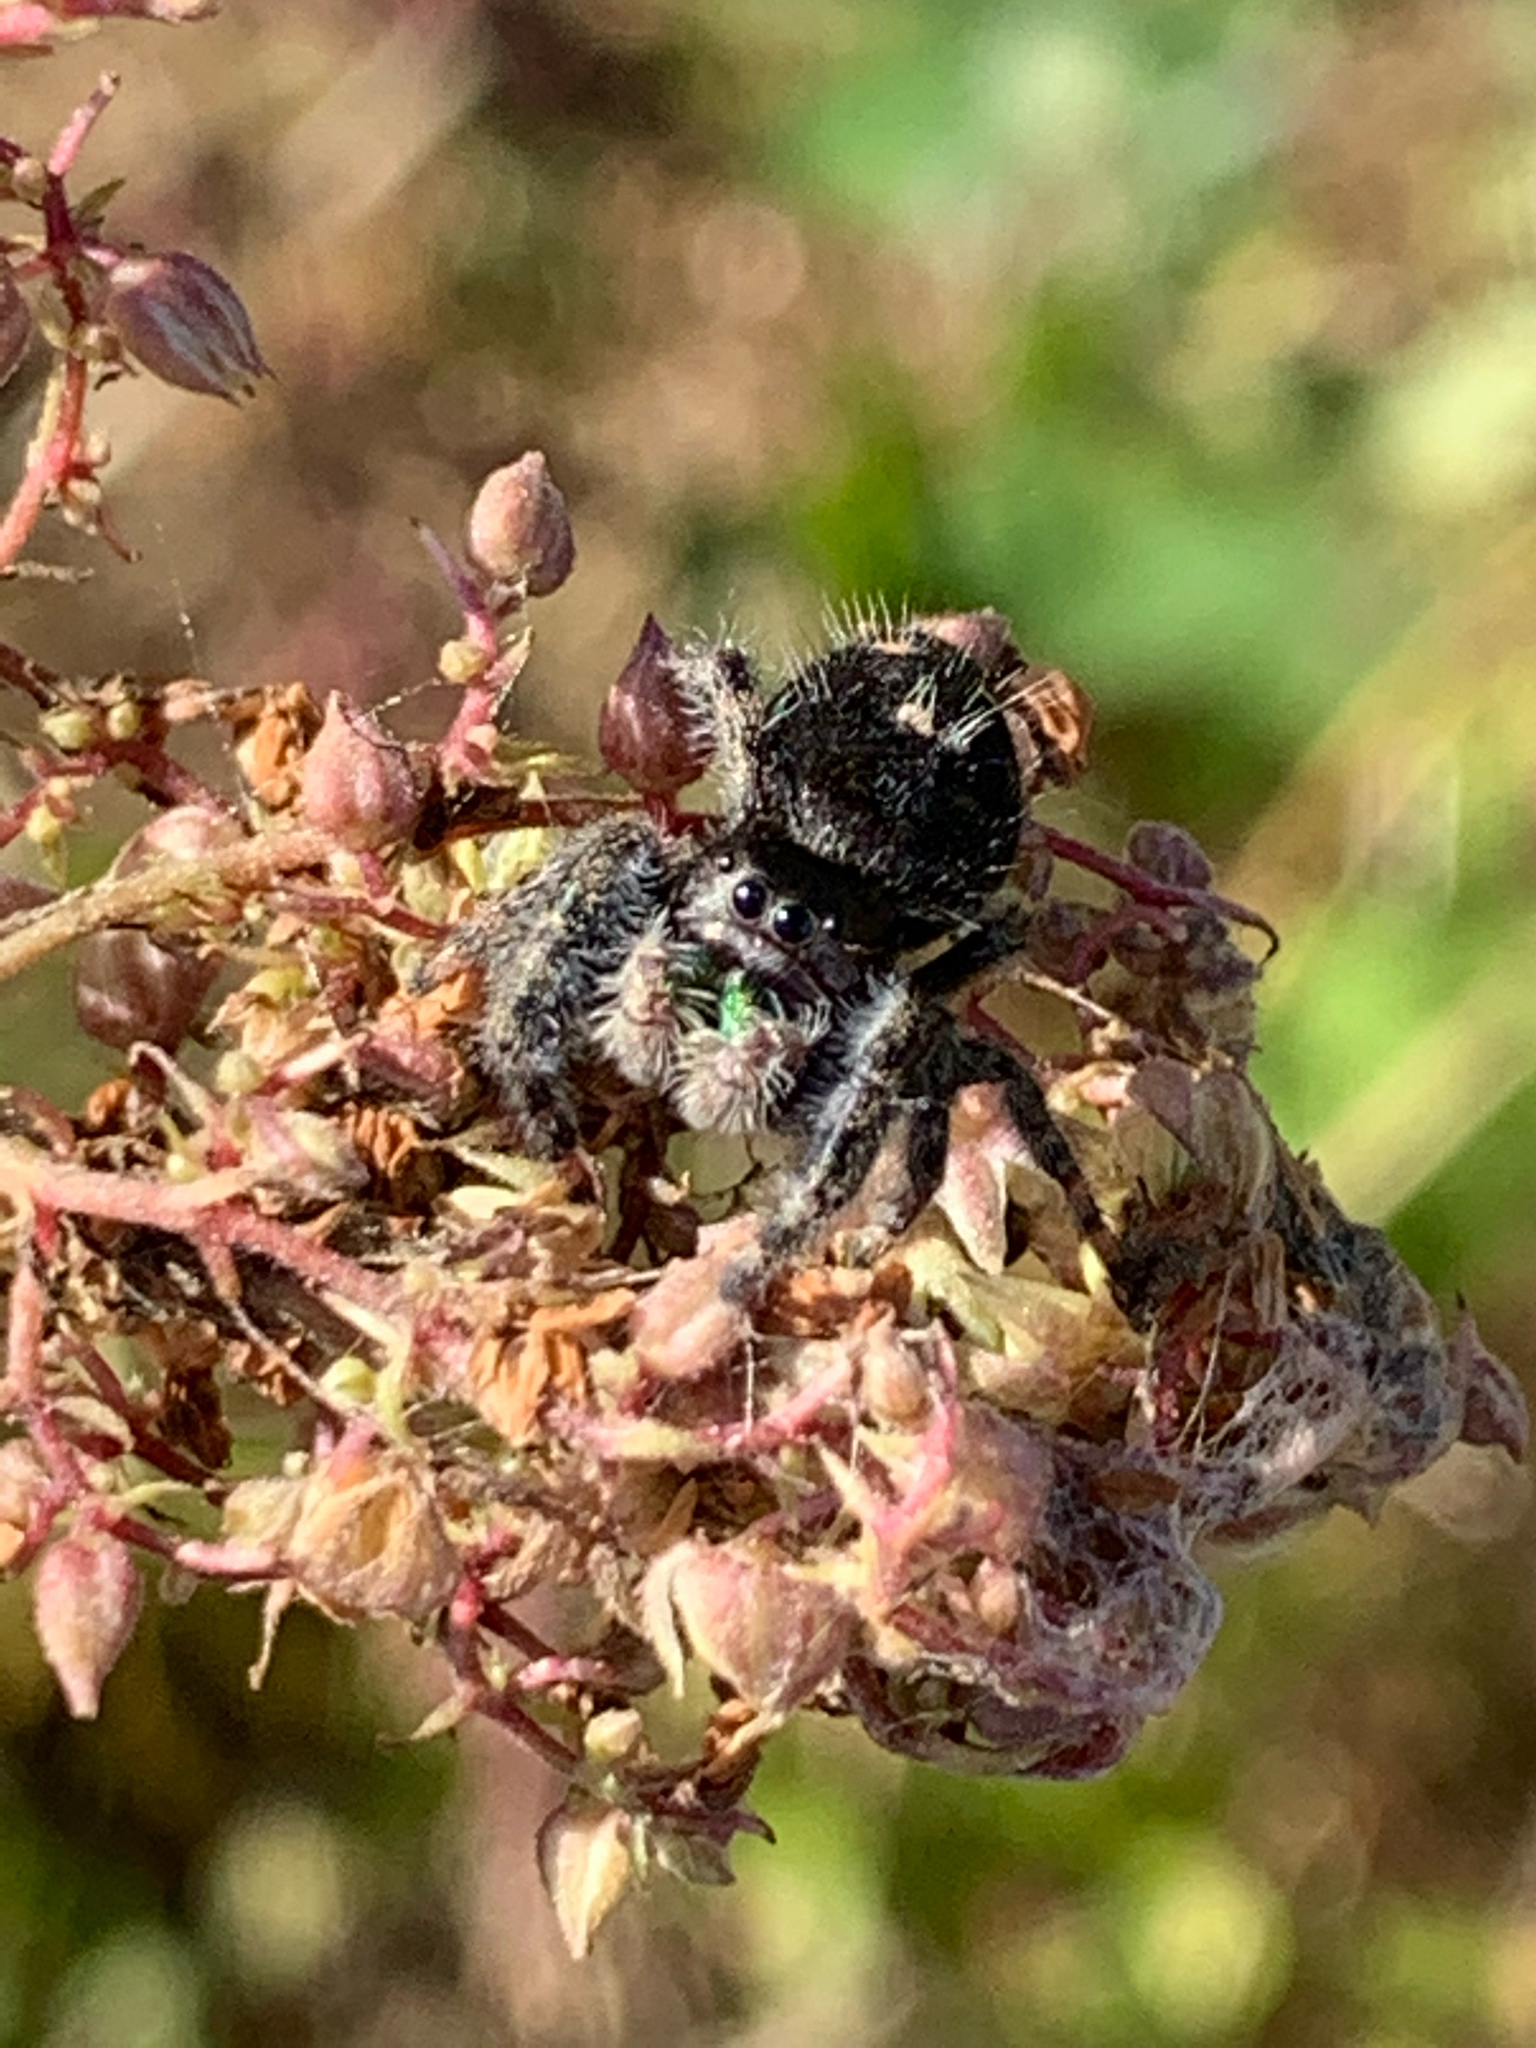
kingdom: Animalia
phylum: Arthropoda
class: Arachnida
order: Araneae
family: Salticidae
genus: Phidippus
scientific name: Phidippus audax
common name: Bold jumper
